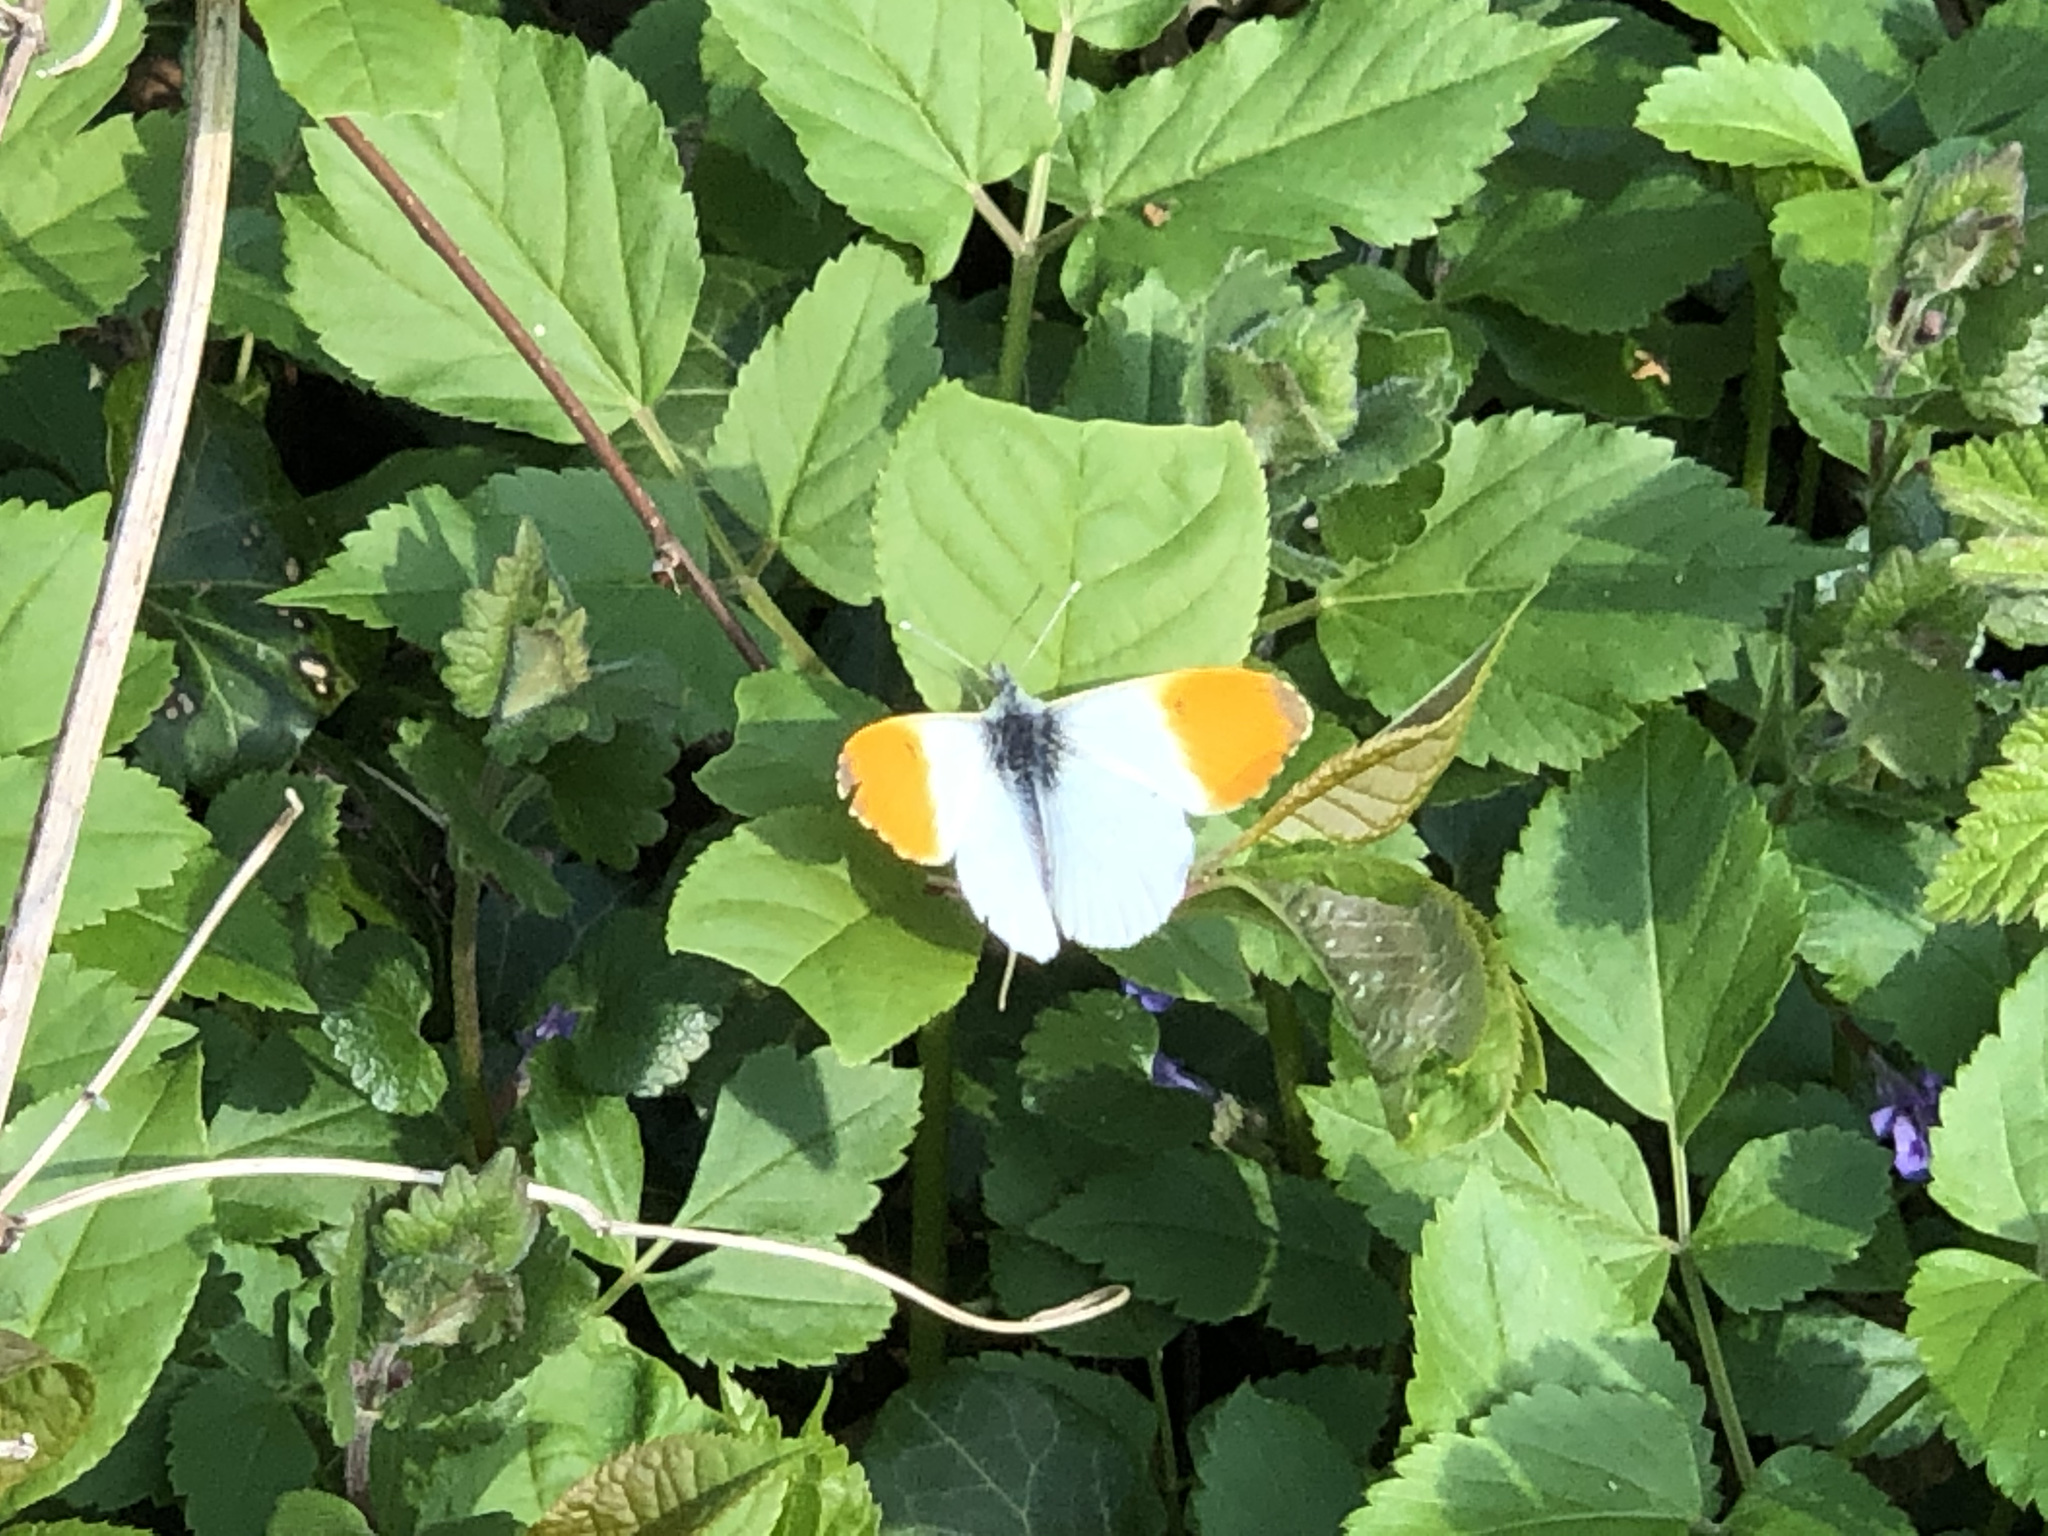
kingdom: Animalia
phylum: Arthropoda
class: Insecta
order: Lepidoptera
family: Pieridae
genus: Anthocharis
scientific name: Anthocharis cardamines
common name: Orange-tip
